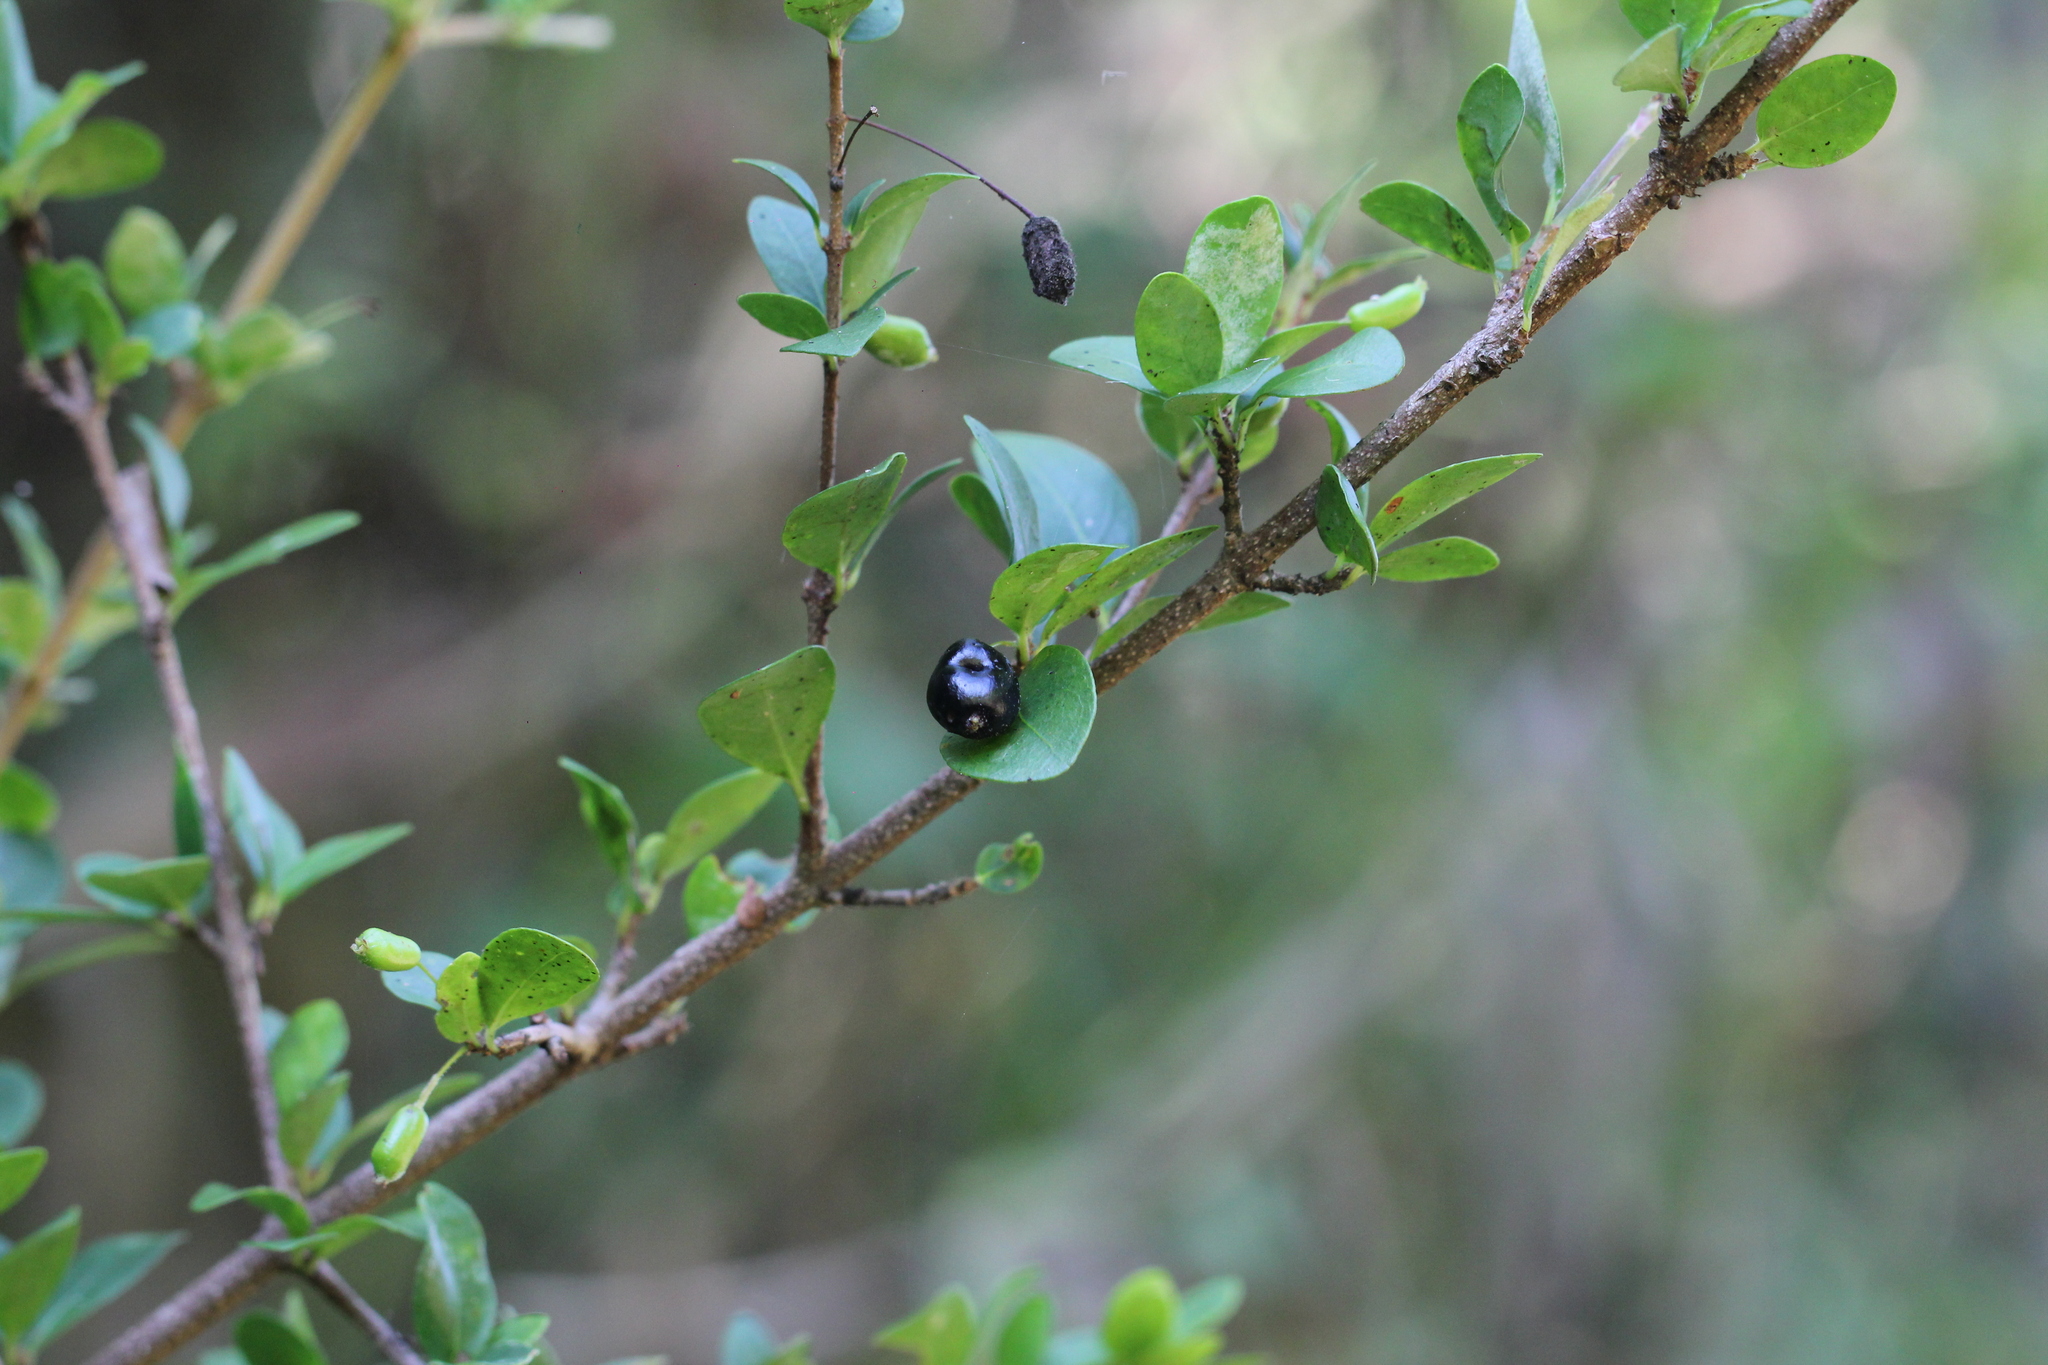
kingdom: Plantae
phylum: Tracheophyta
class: Magnoliopsida
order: Gentianales
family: Rubiaceae
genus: Chomelia
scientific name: Chomelia obtusa
